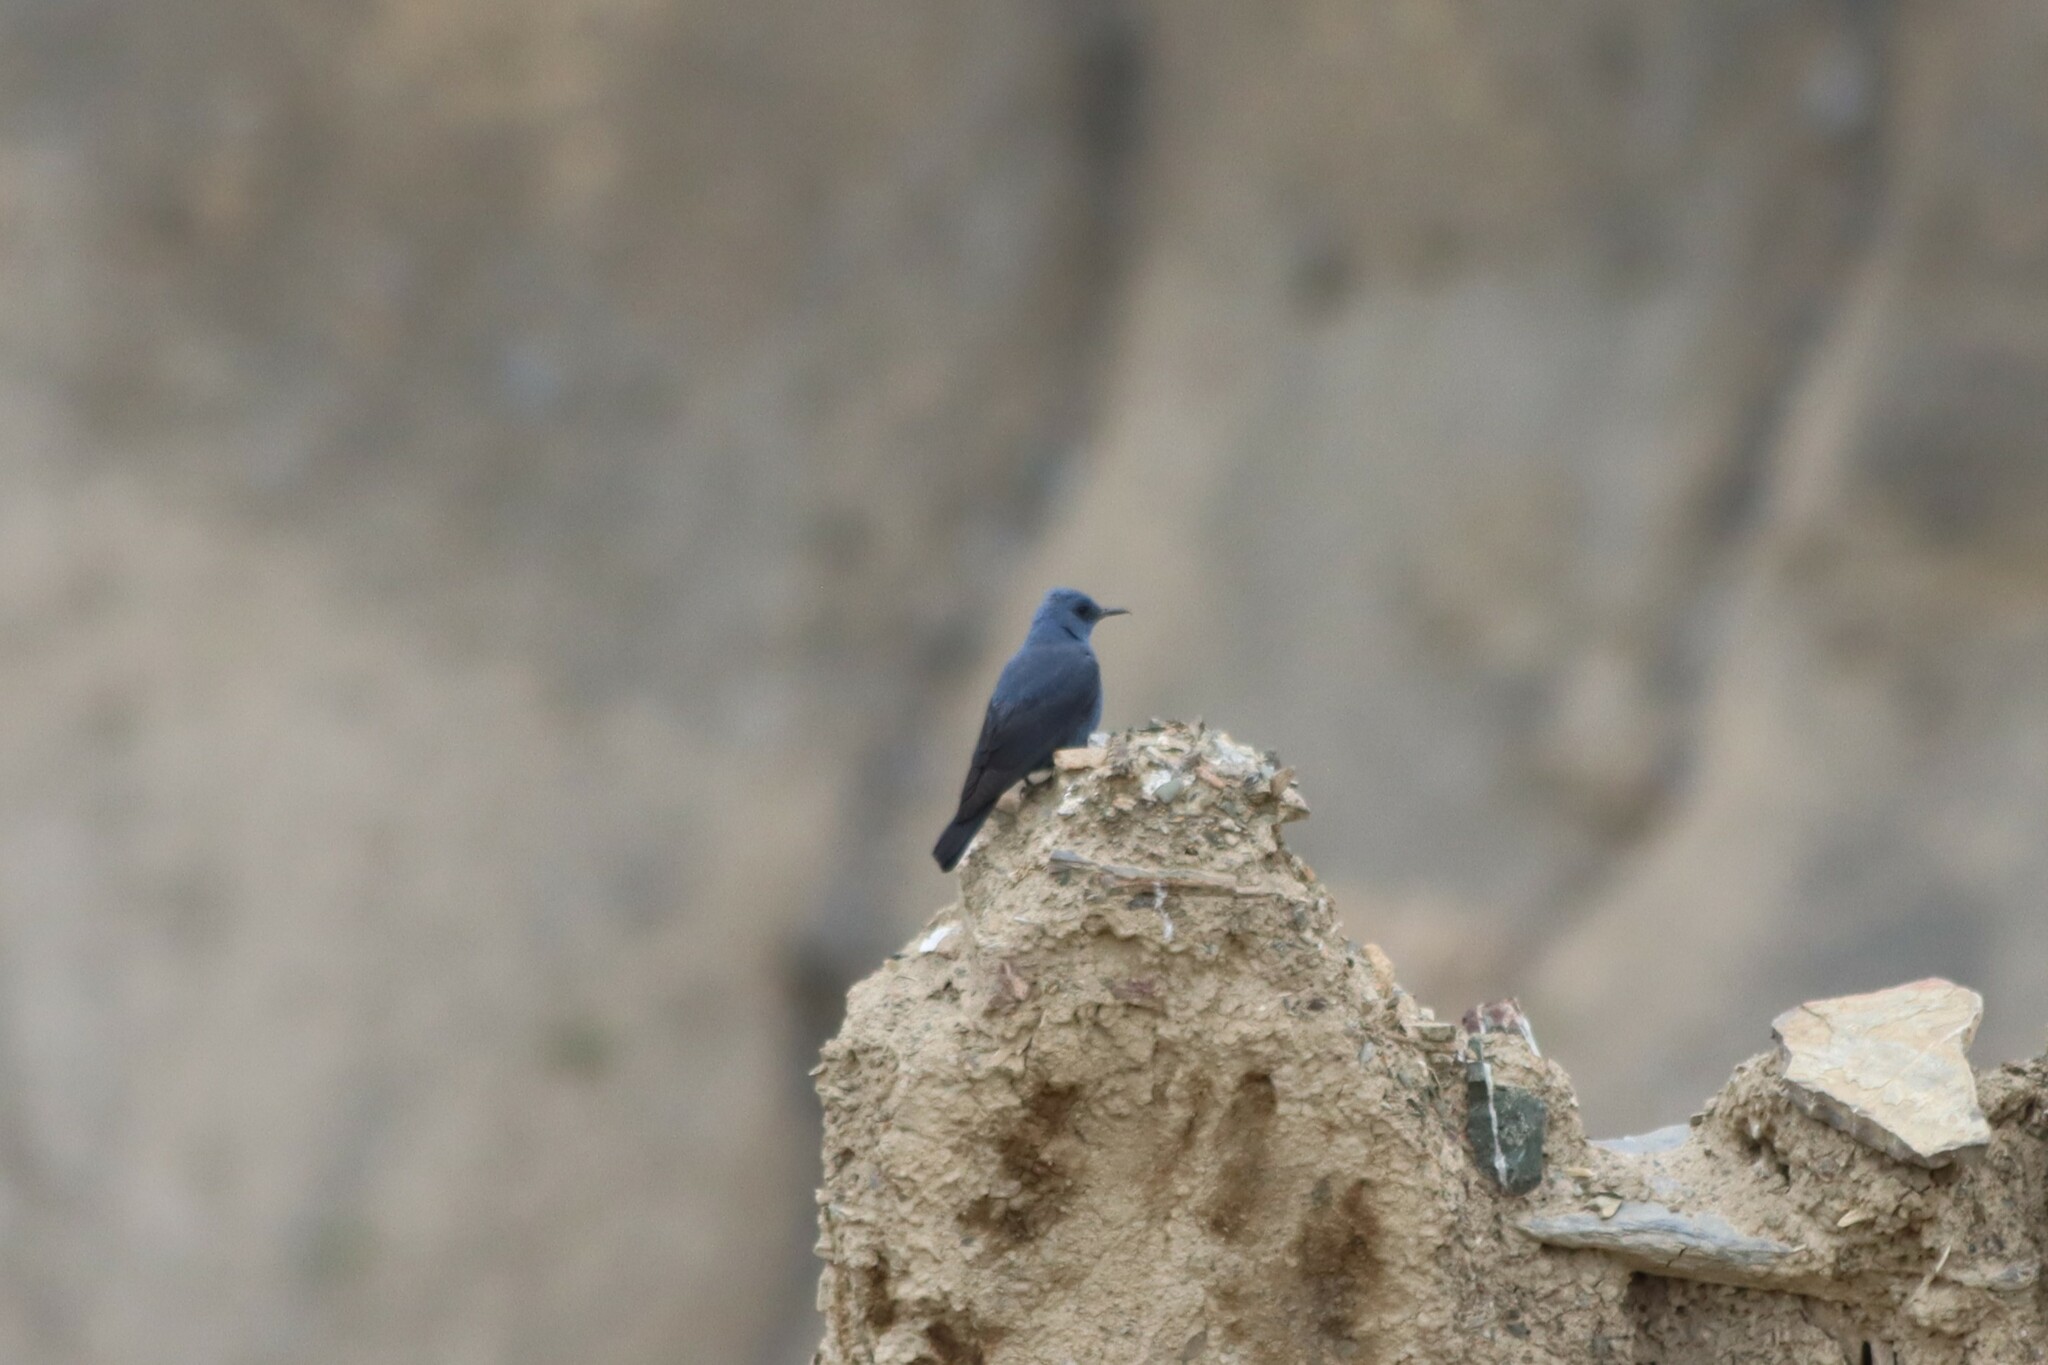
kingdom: Animalia
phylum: Chordata
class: Aves
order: Passeriformes
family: Muscicapidae
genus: Monticola
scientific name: Monticola solitarius
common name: Blue rock thrush
